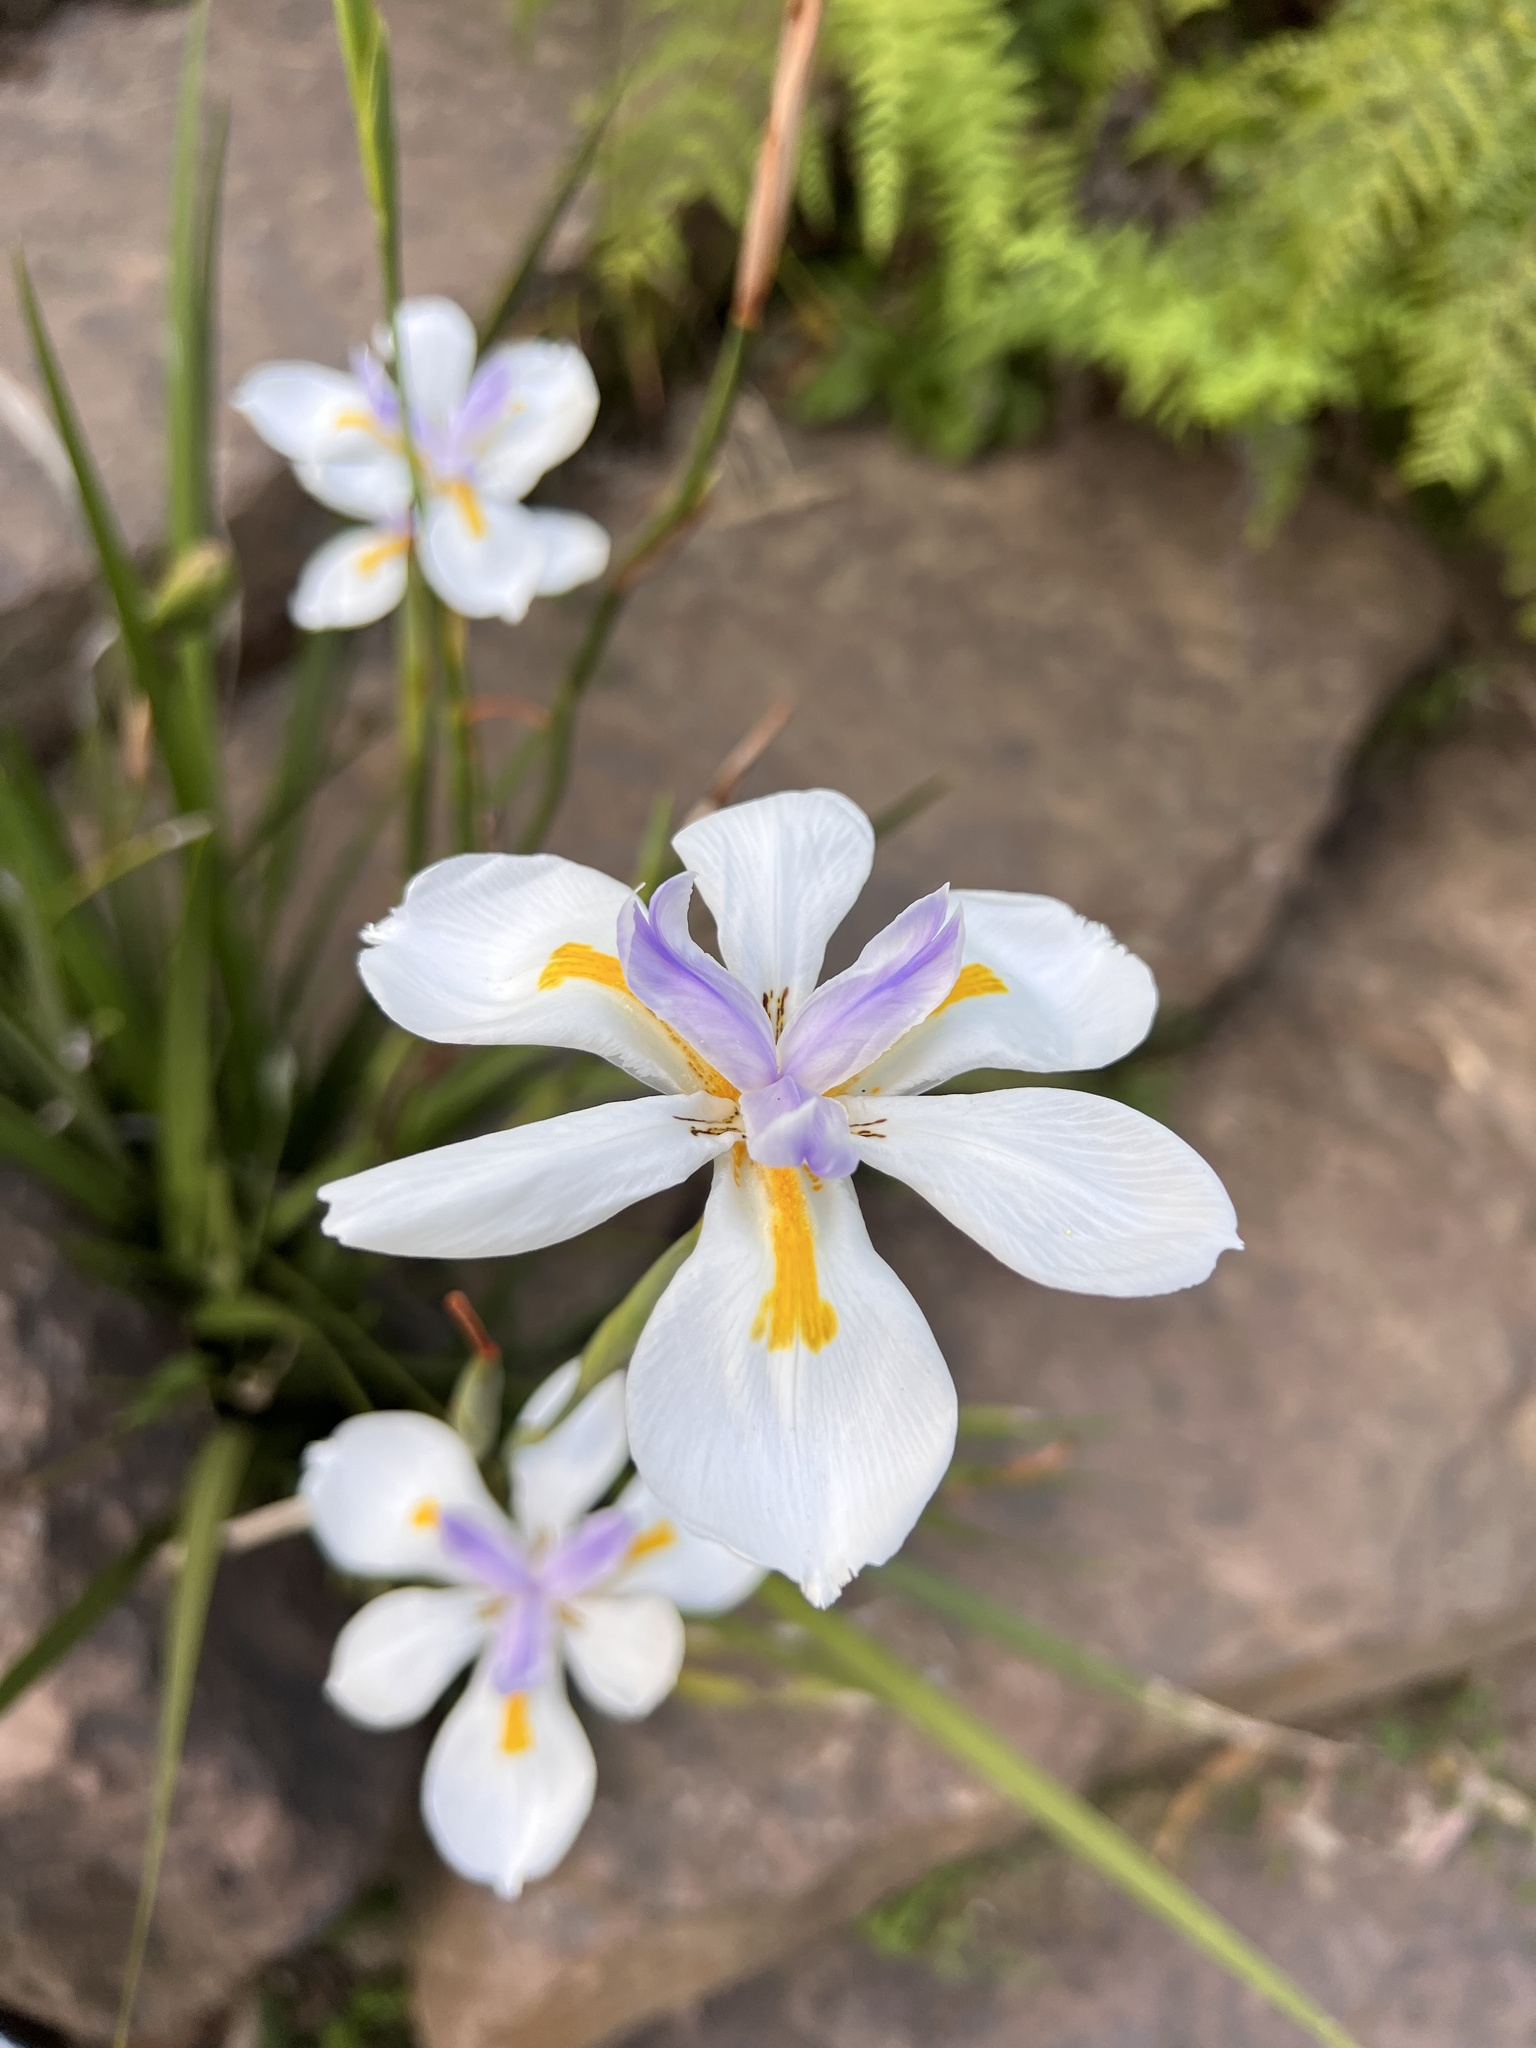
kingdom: Plantae
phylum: Tracheophyta
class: Liliopsida
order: Asparagales
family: Iridaceae
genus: Dietes
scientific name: Dietes grandiflora
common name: Wild iris
